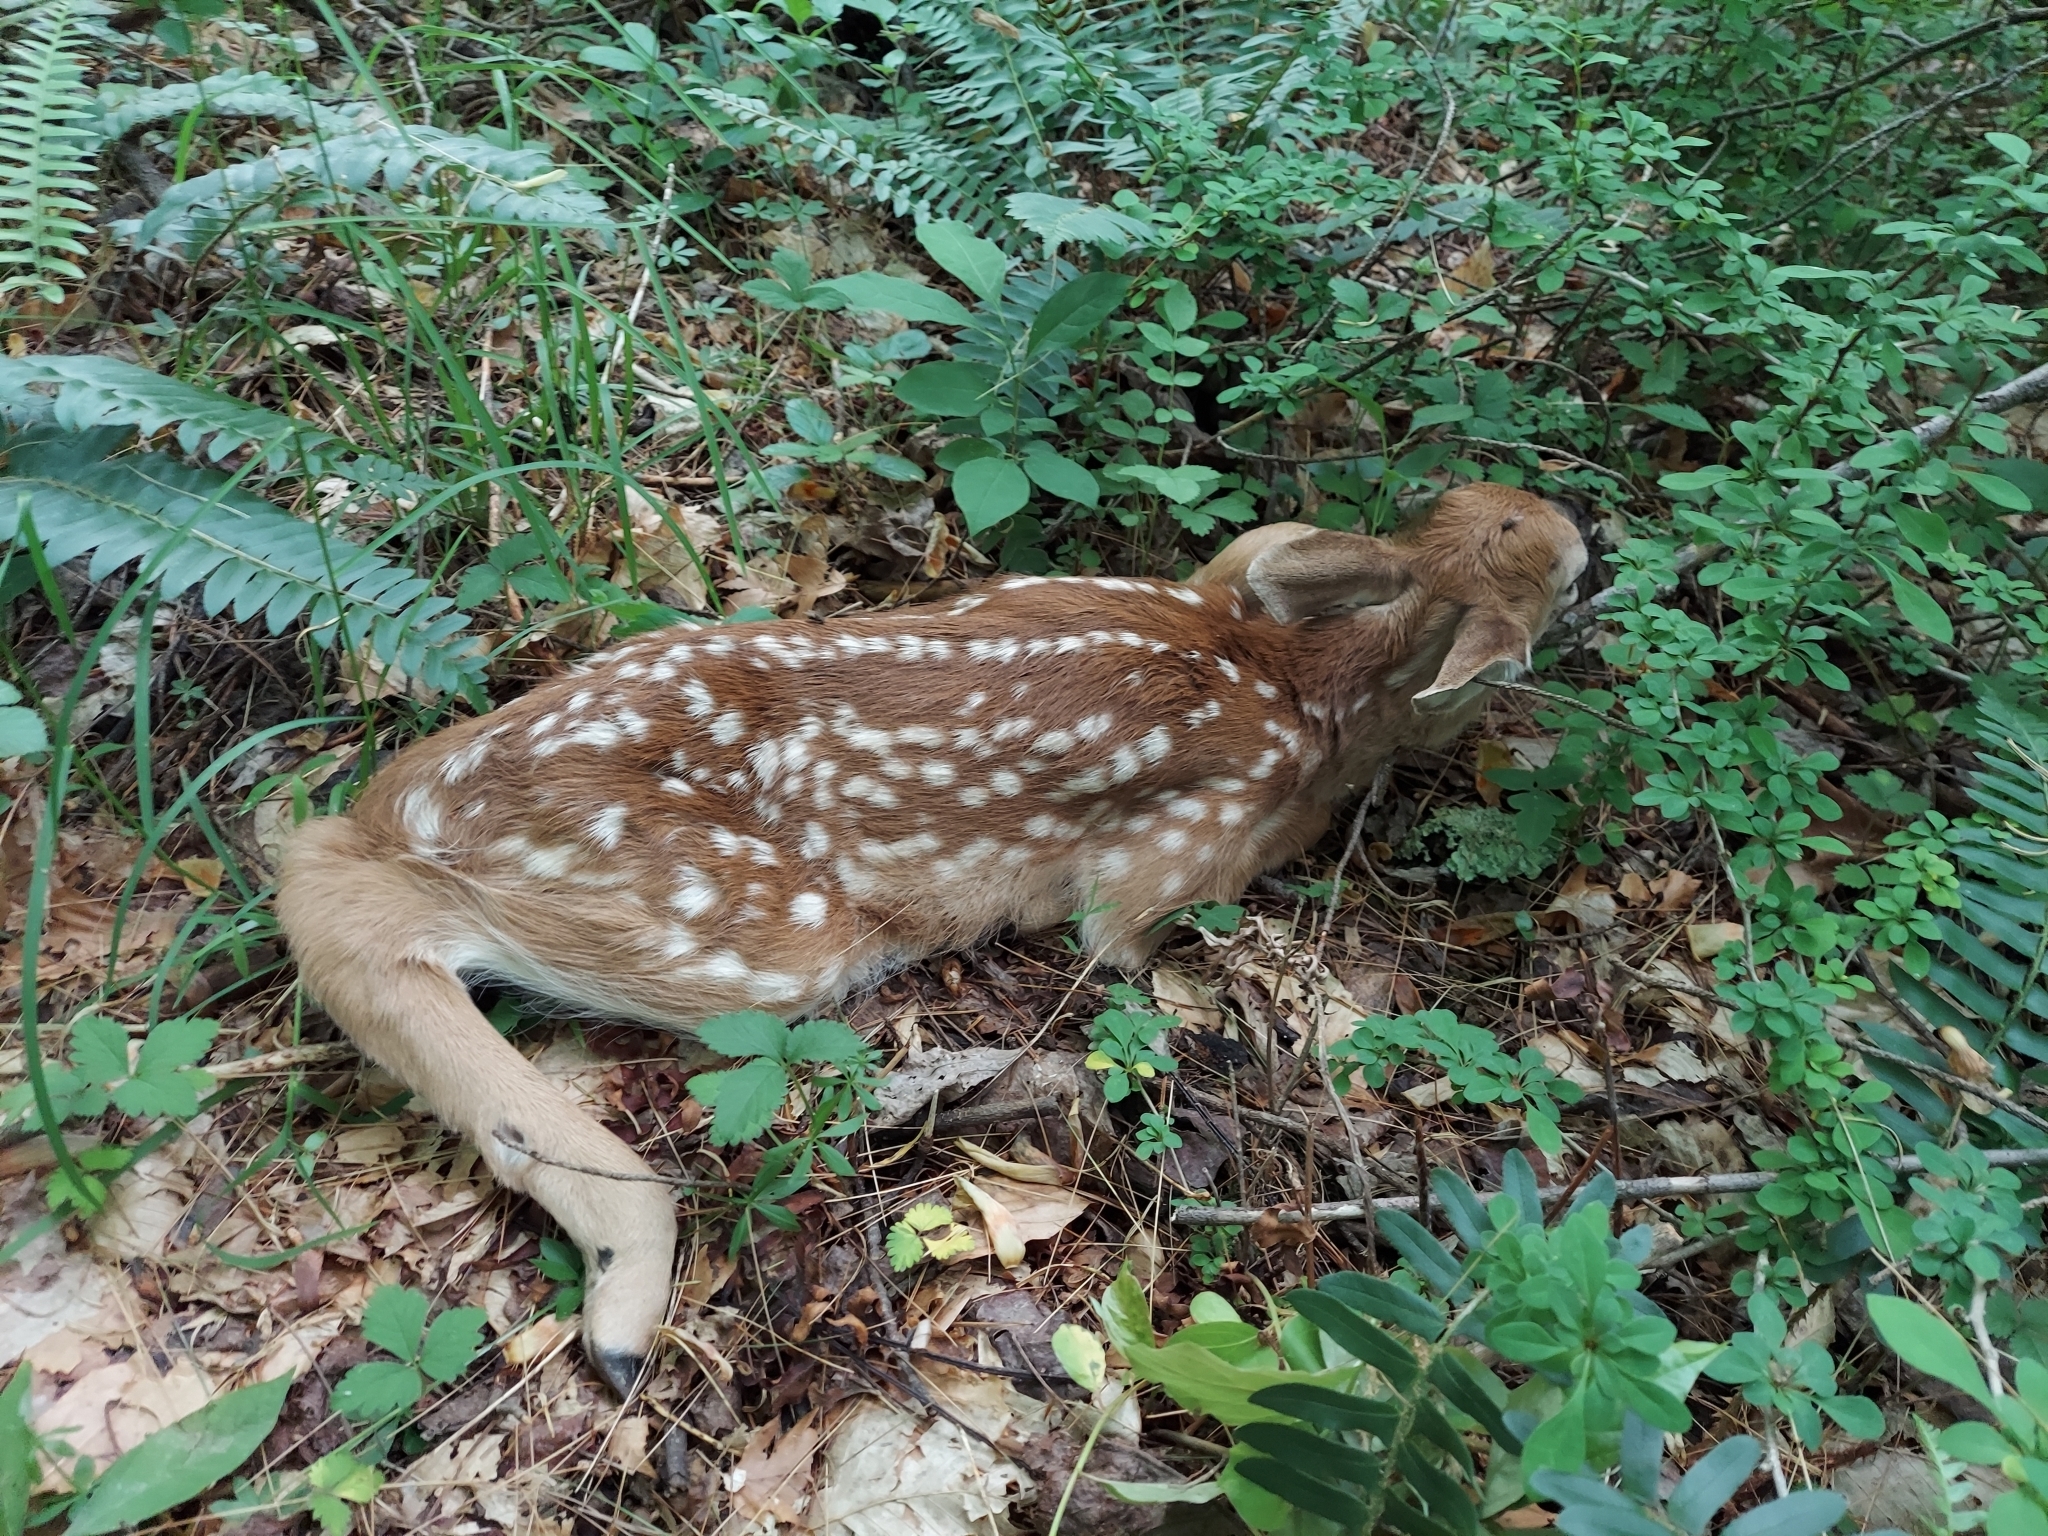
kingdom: Animalia
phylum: Chordata
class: Mammalia
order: Artiodactyla
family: Cervidae
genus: Odocoileus
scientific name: Odocoileus virginianus
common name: White-tailed deer
